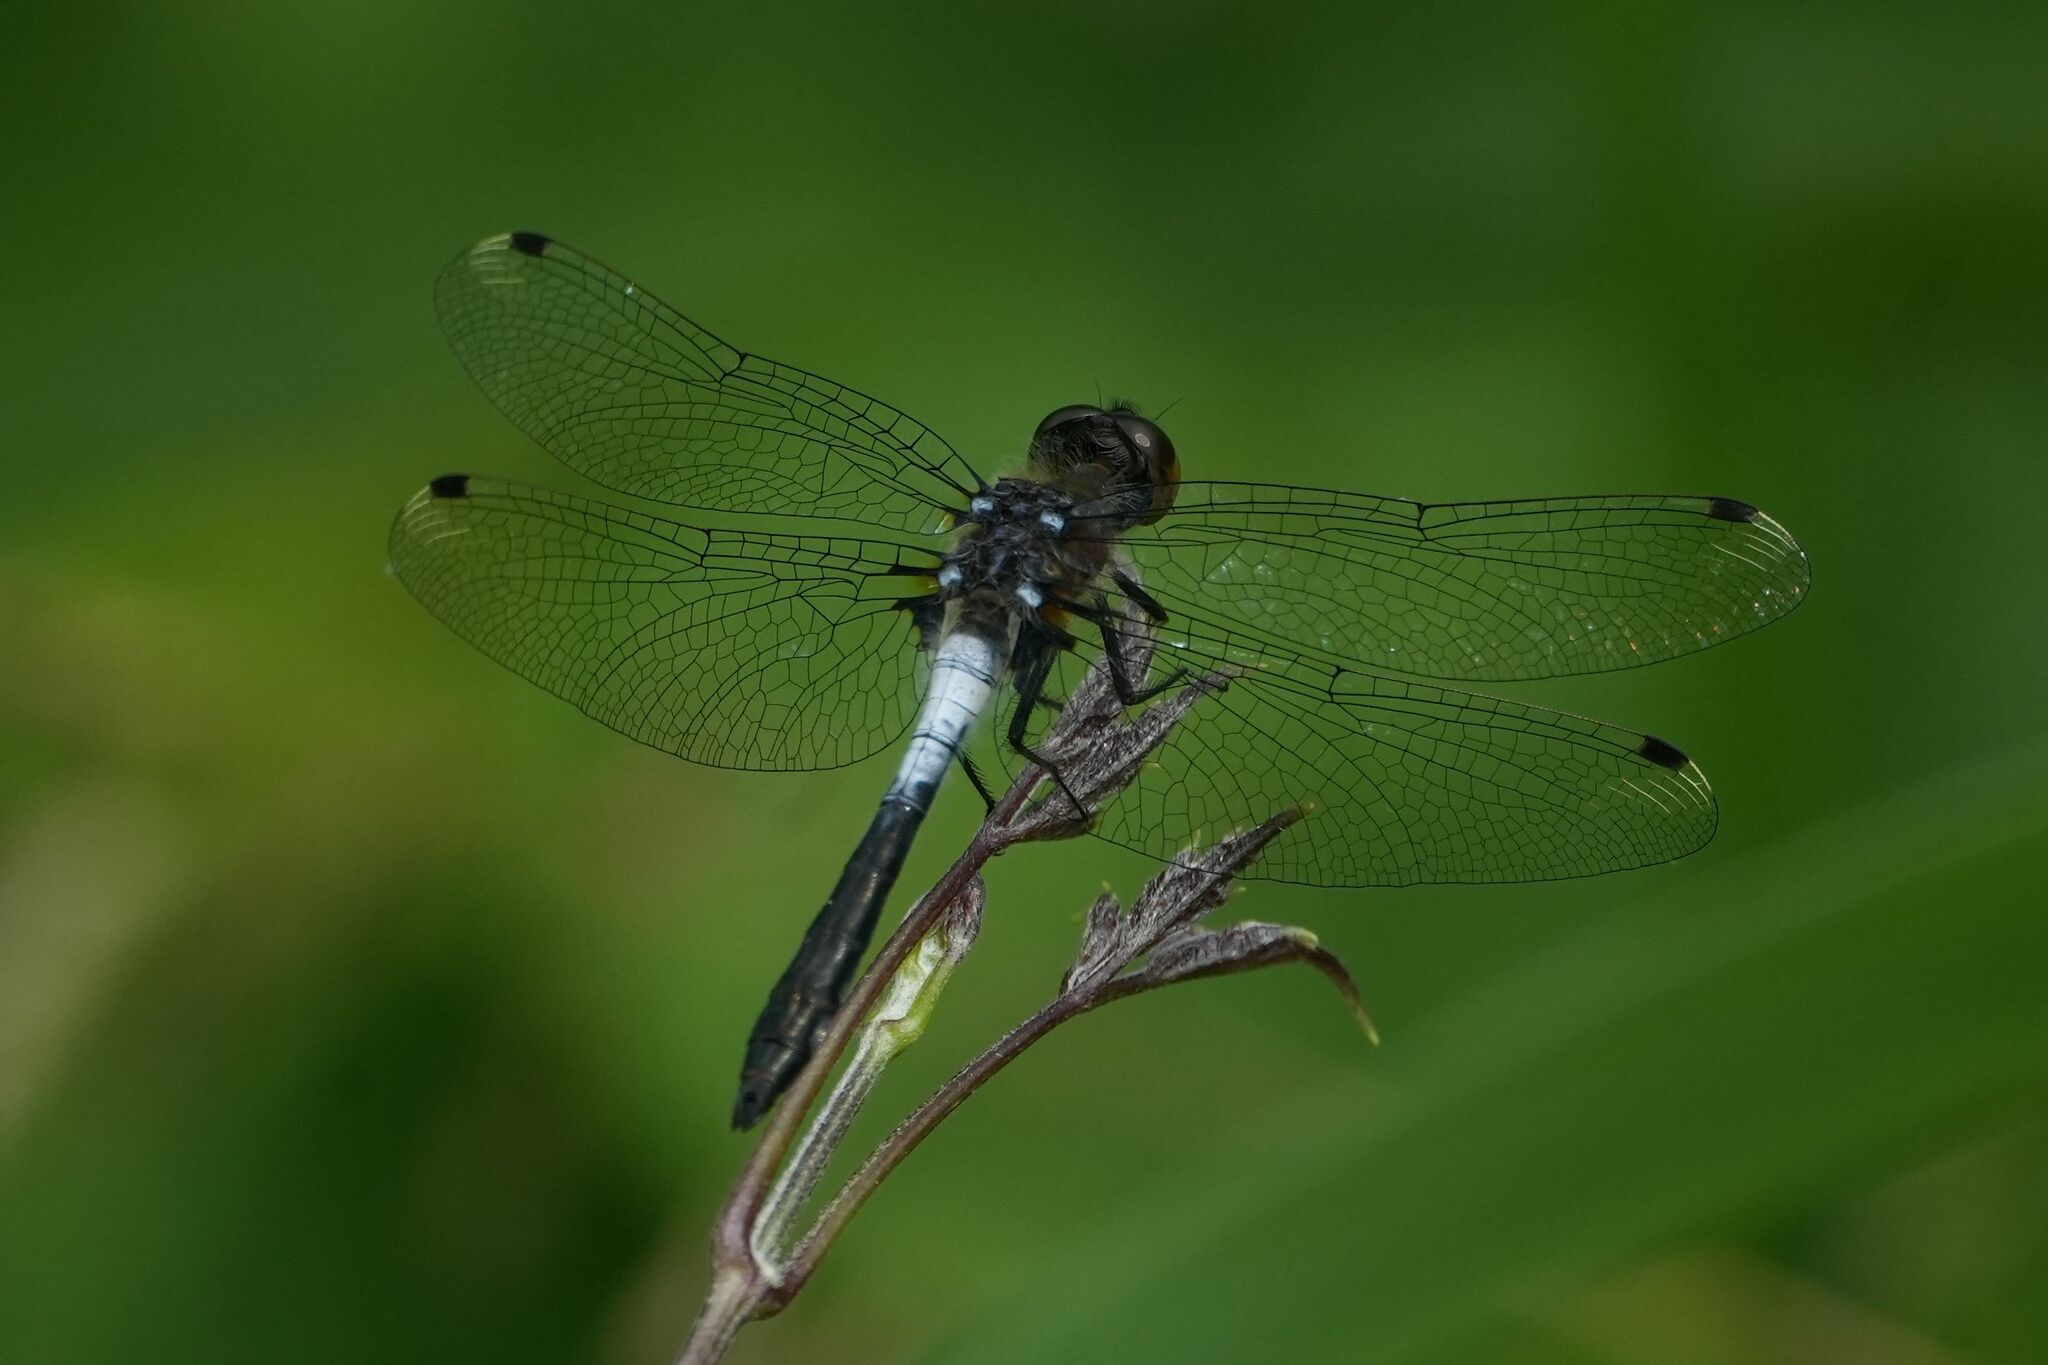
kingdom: Animalia
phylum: Arthropoda
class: Insecta
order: Odonata
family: Libellulidae
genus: Leucorrhinia
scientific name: Leucorrhinia frigida
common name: Frosted whiteface
